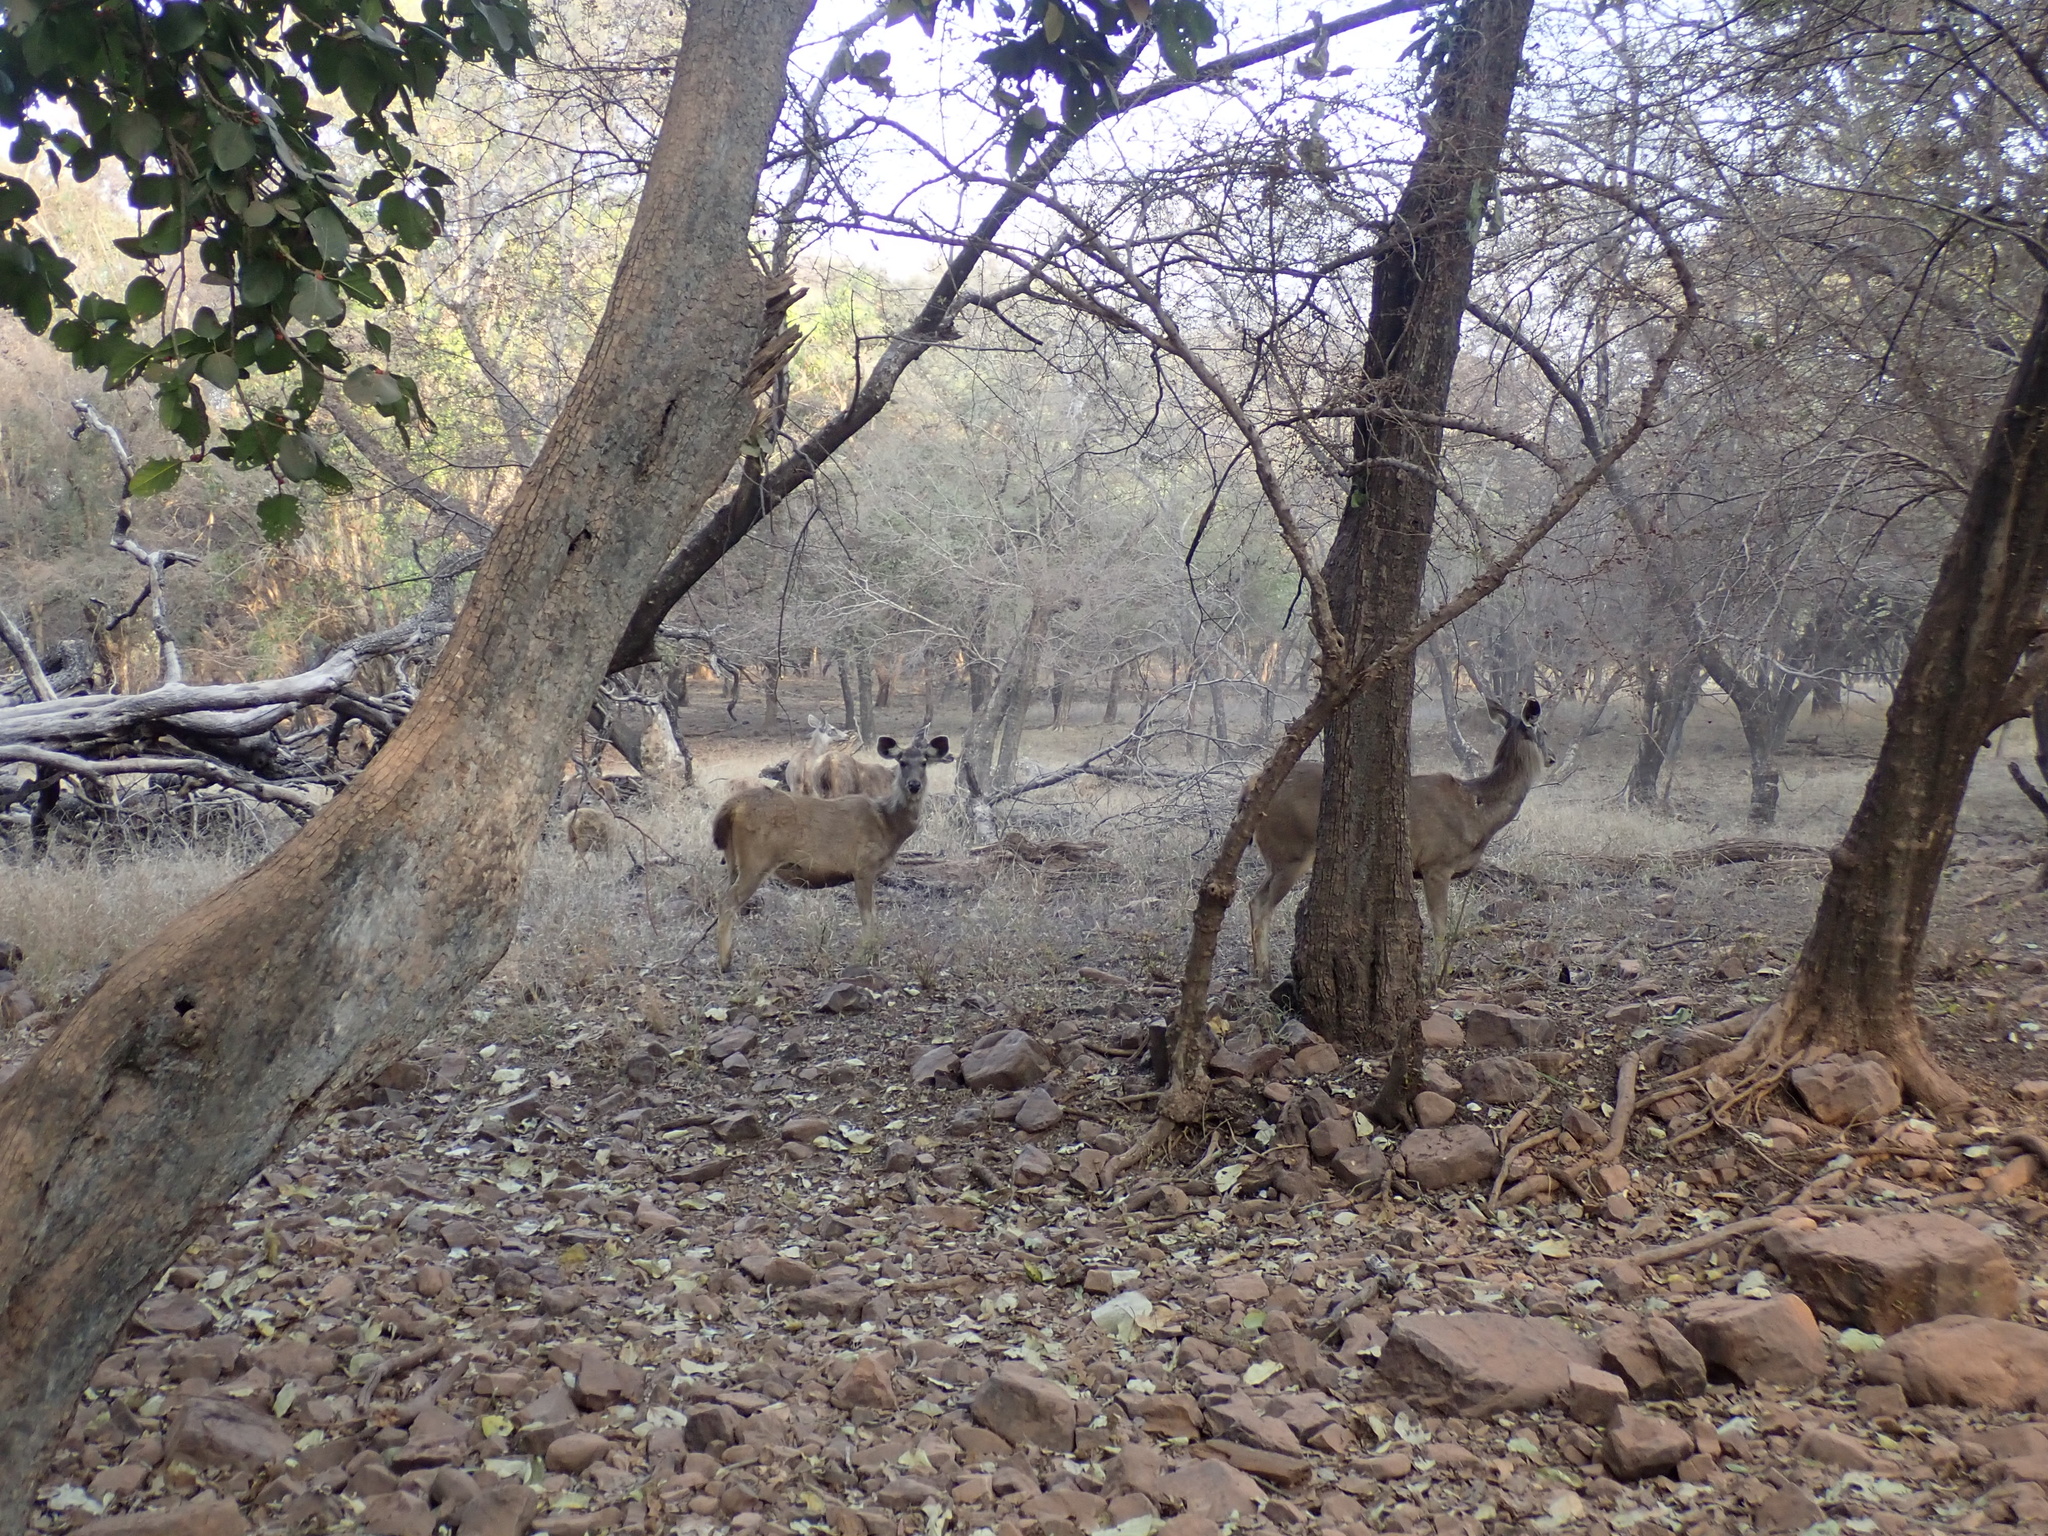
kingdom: Animalia
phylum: Chordata
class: Mammalia
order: Artiodactyla
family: Cervidae
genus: Rusa
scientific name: Rusa unicolor
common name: Sambar
